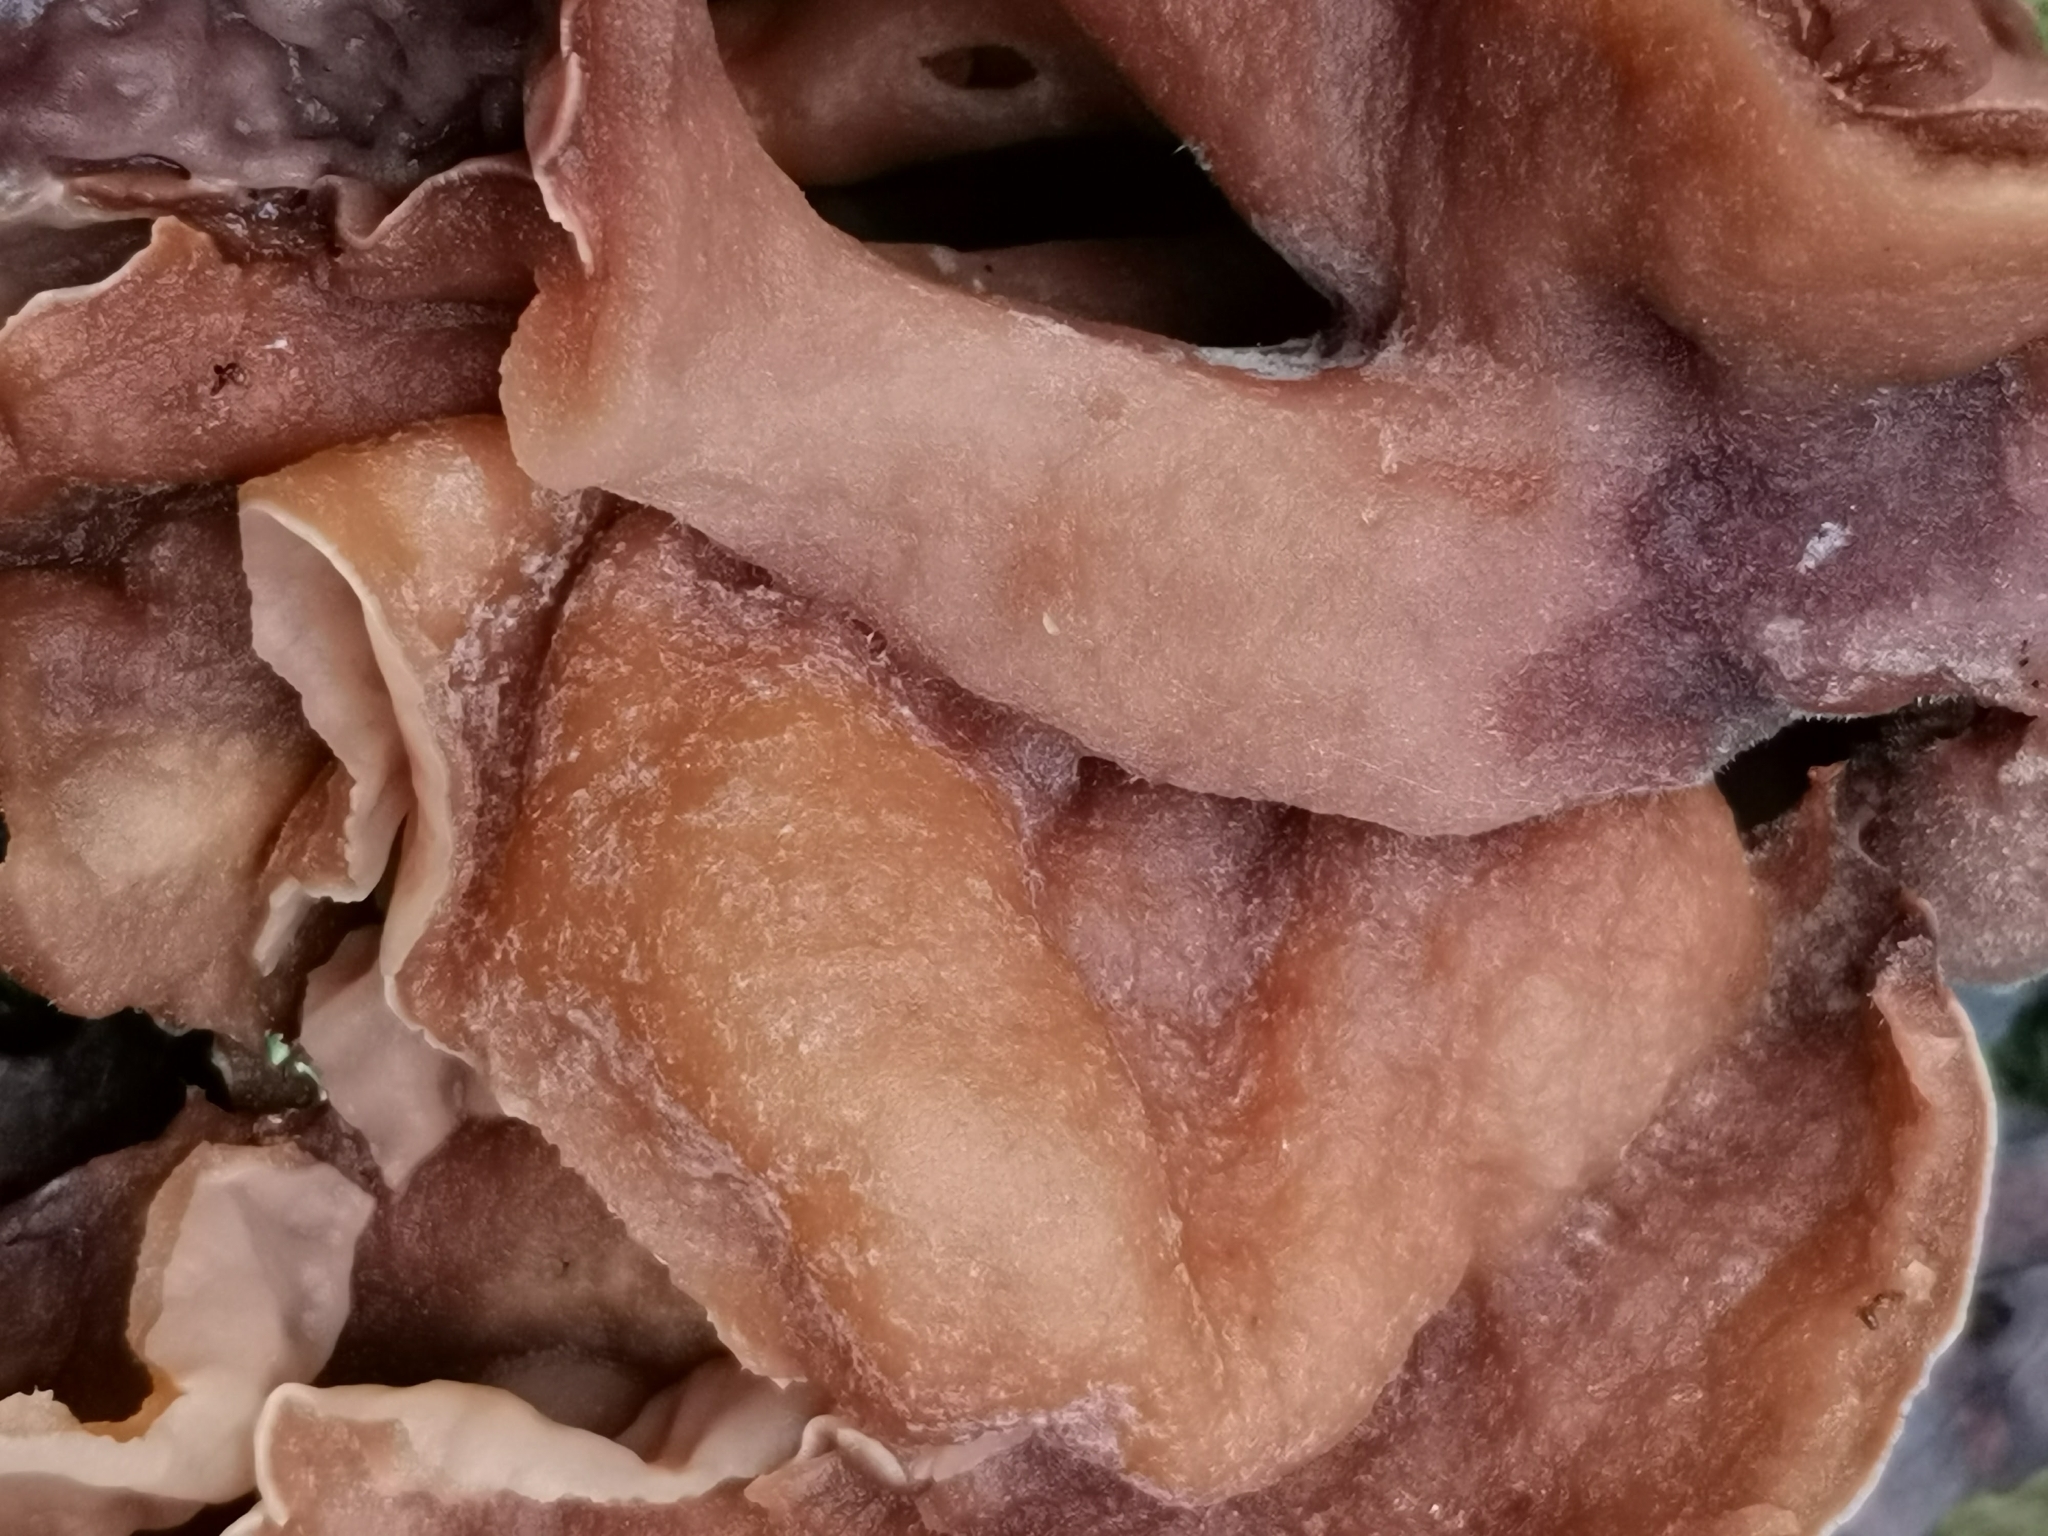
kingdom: Fungi
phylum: Ascomycota
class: Pezizomycetes
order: Pezizales
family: Discinaceae
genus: Gyromitra
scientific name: Gyromitra infula
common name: Pouched false morel
